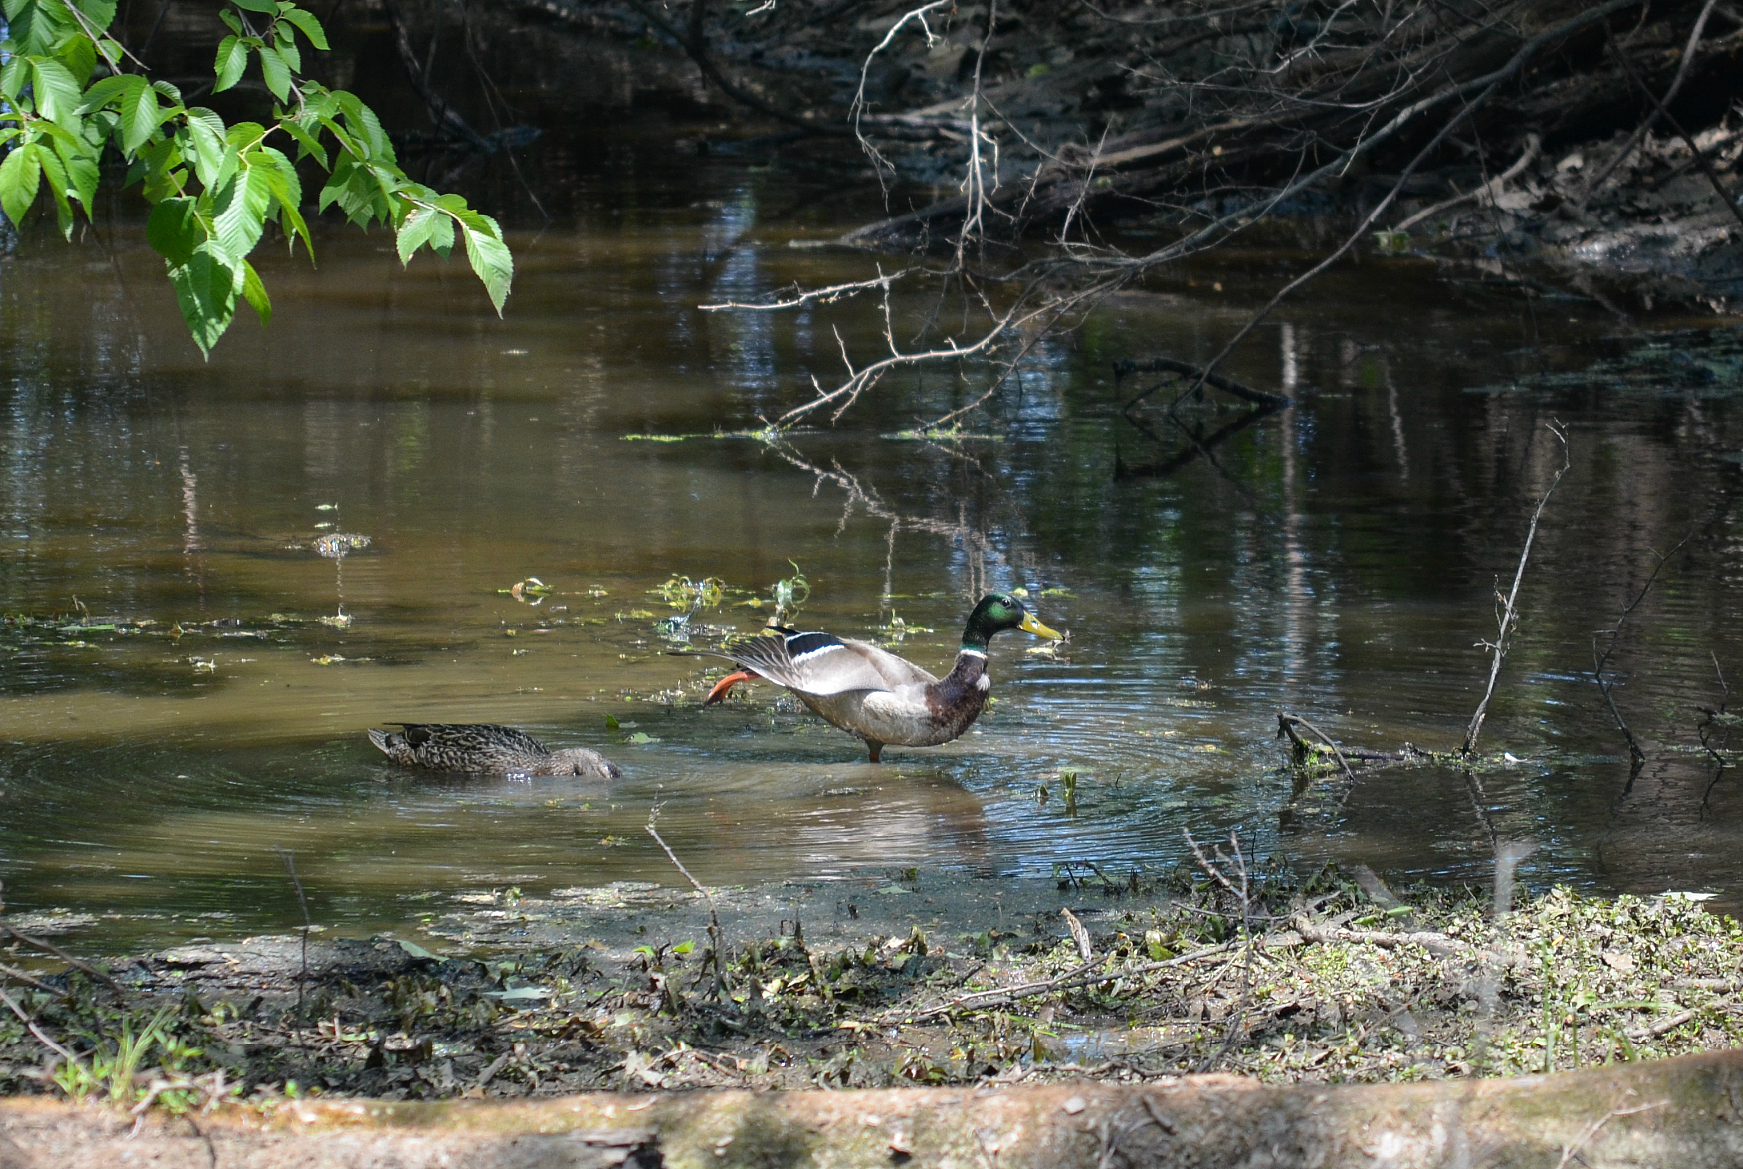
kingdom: Animalia
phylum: Chordata
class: Aves
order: Anseriformes
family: Anatidae
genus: Anas
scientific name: Anas platyrhynchos
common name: Mallard
